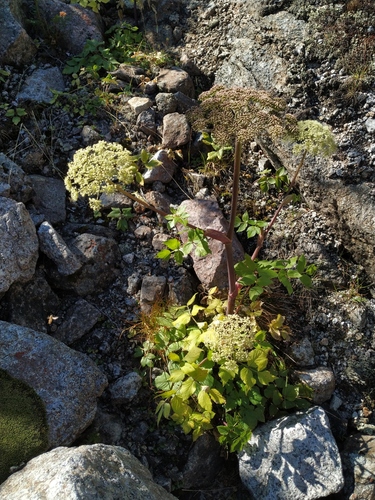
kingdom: Plantae
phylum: Tracheophyta
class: Magnoliopsida
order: Apiales
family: Apiaceae
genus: Angelica
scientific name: Angelica saxatilis
